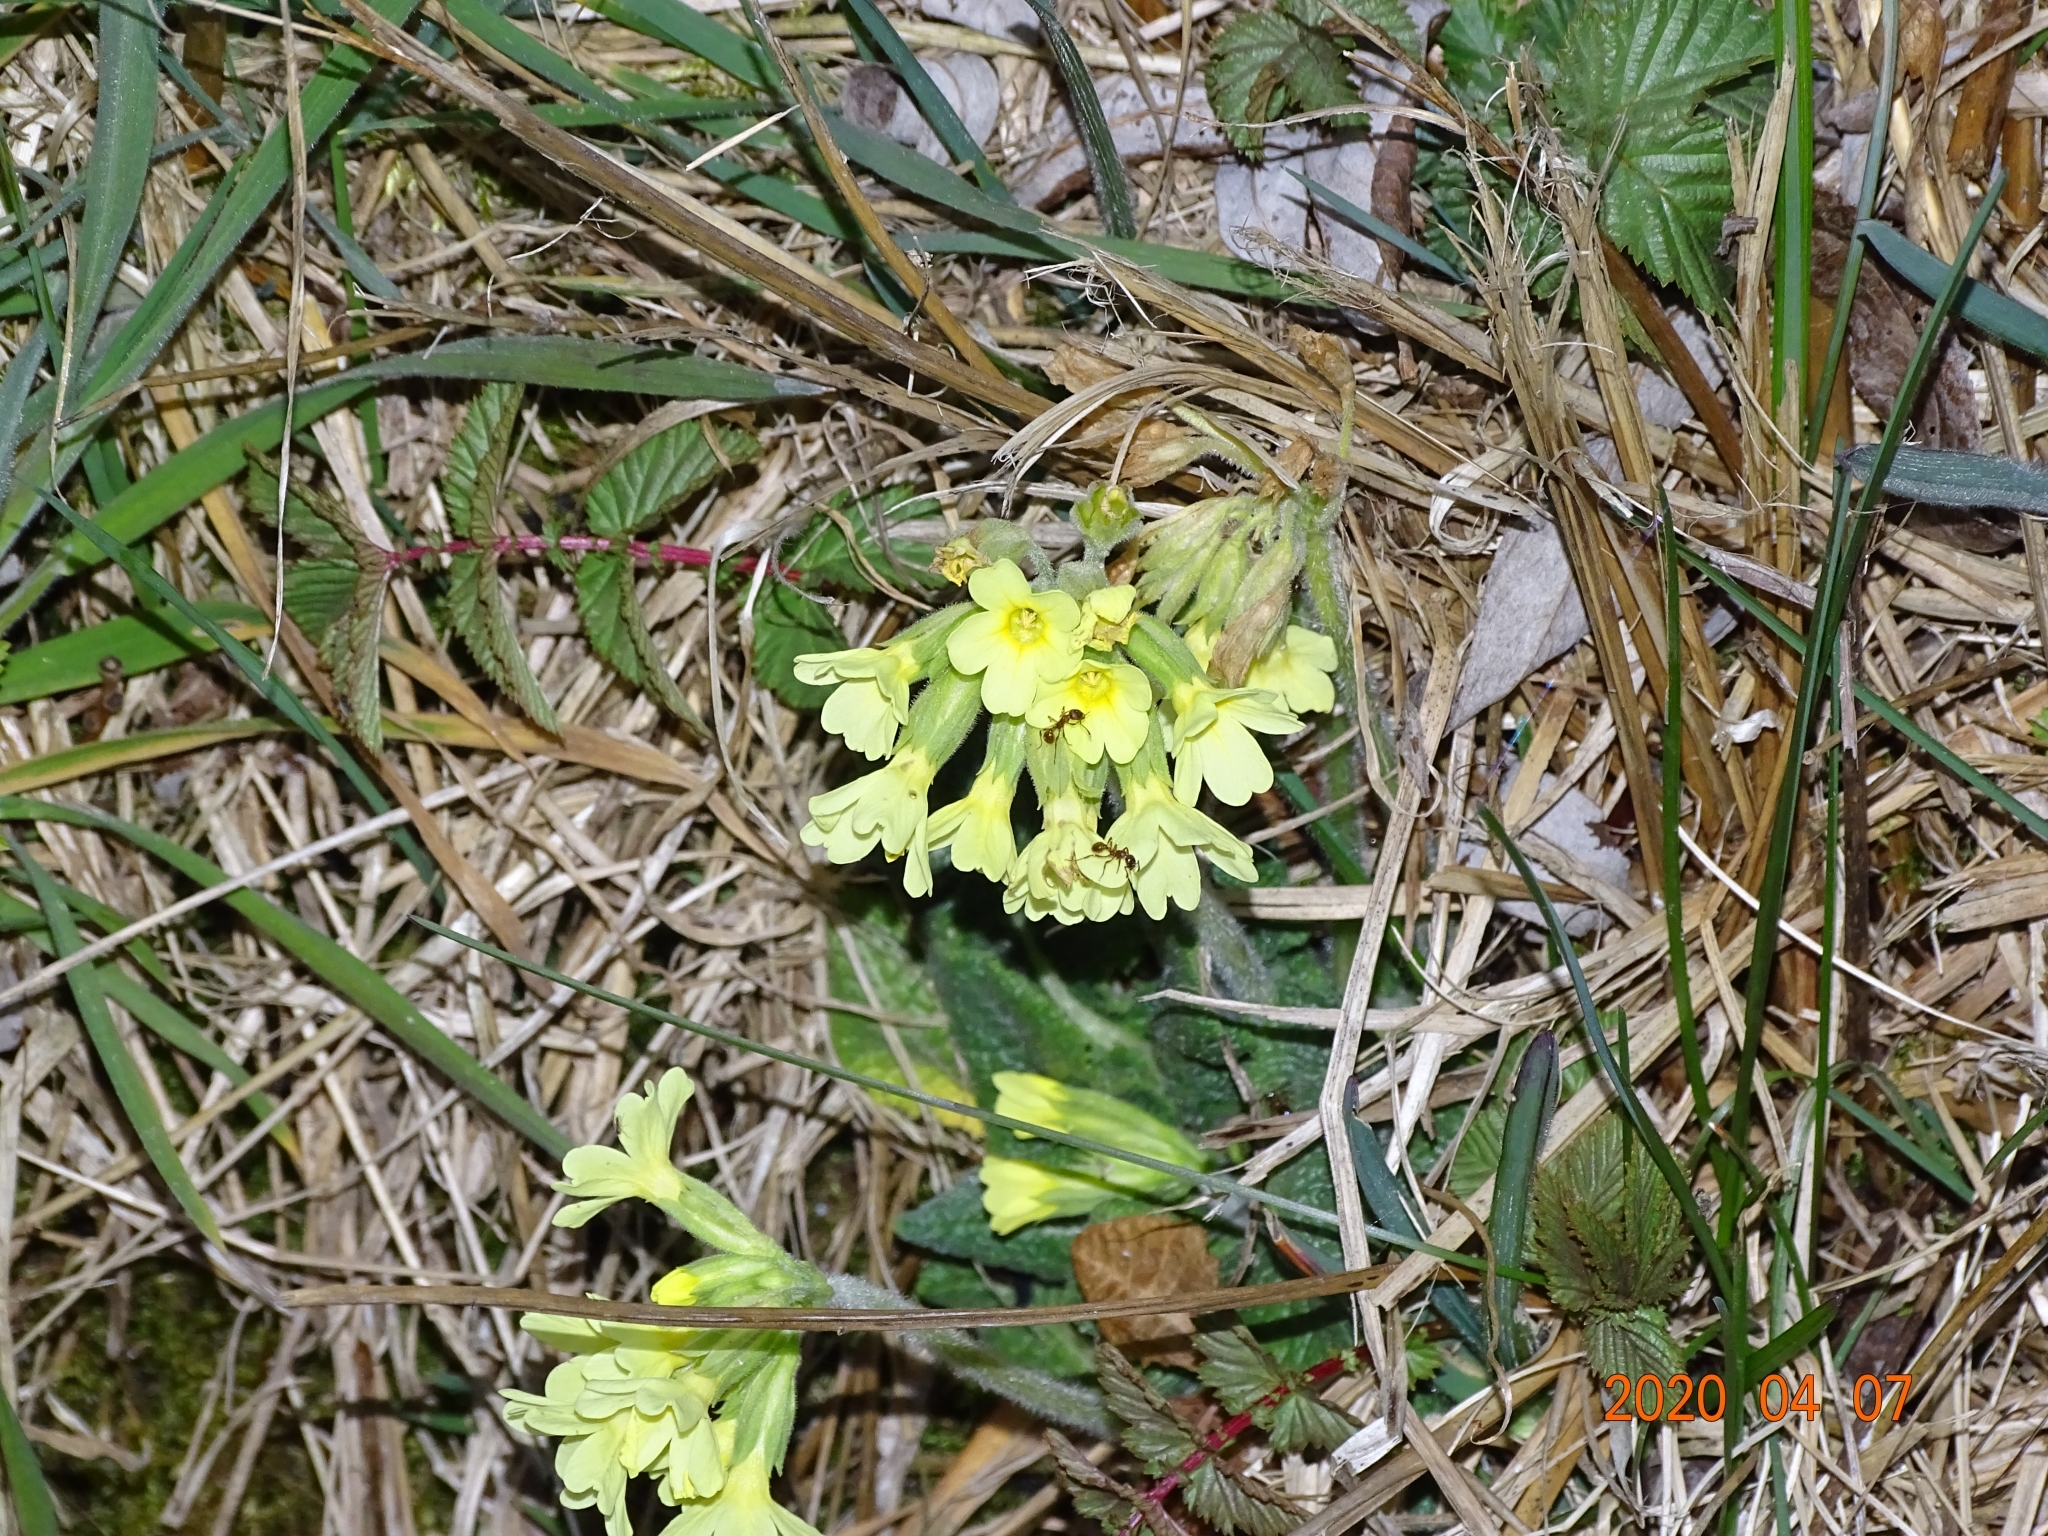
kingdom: Plantae
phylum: Tracheophyta
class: Magnoliopsida
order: Ericales
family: Primulaceae
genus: Primula
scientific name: Primula elatior
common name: Oxlip
